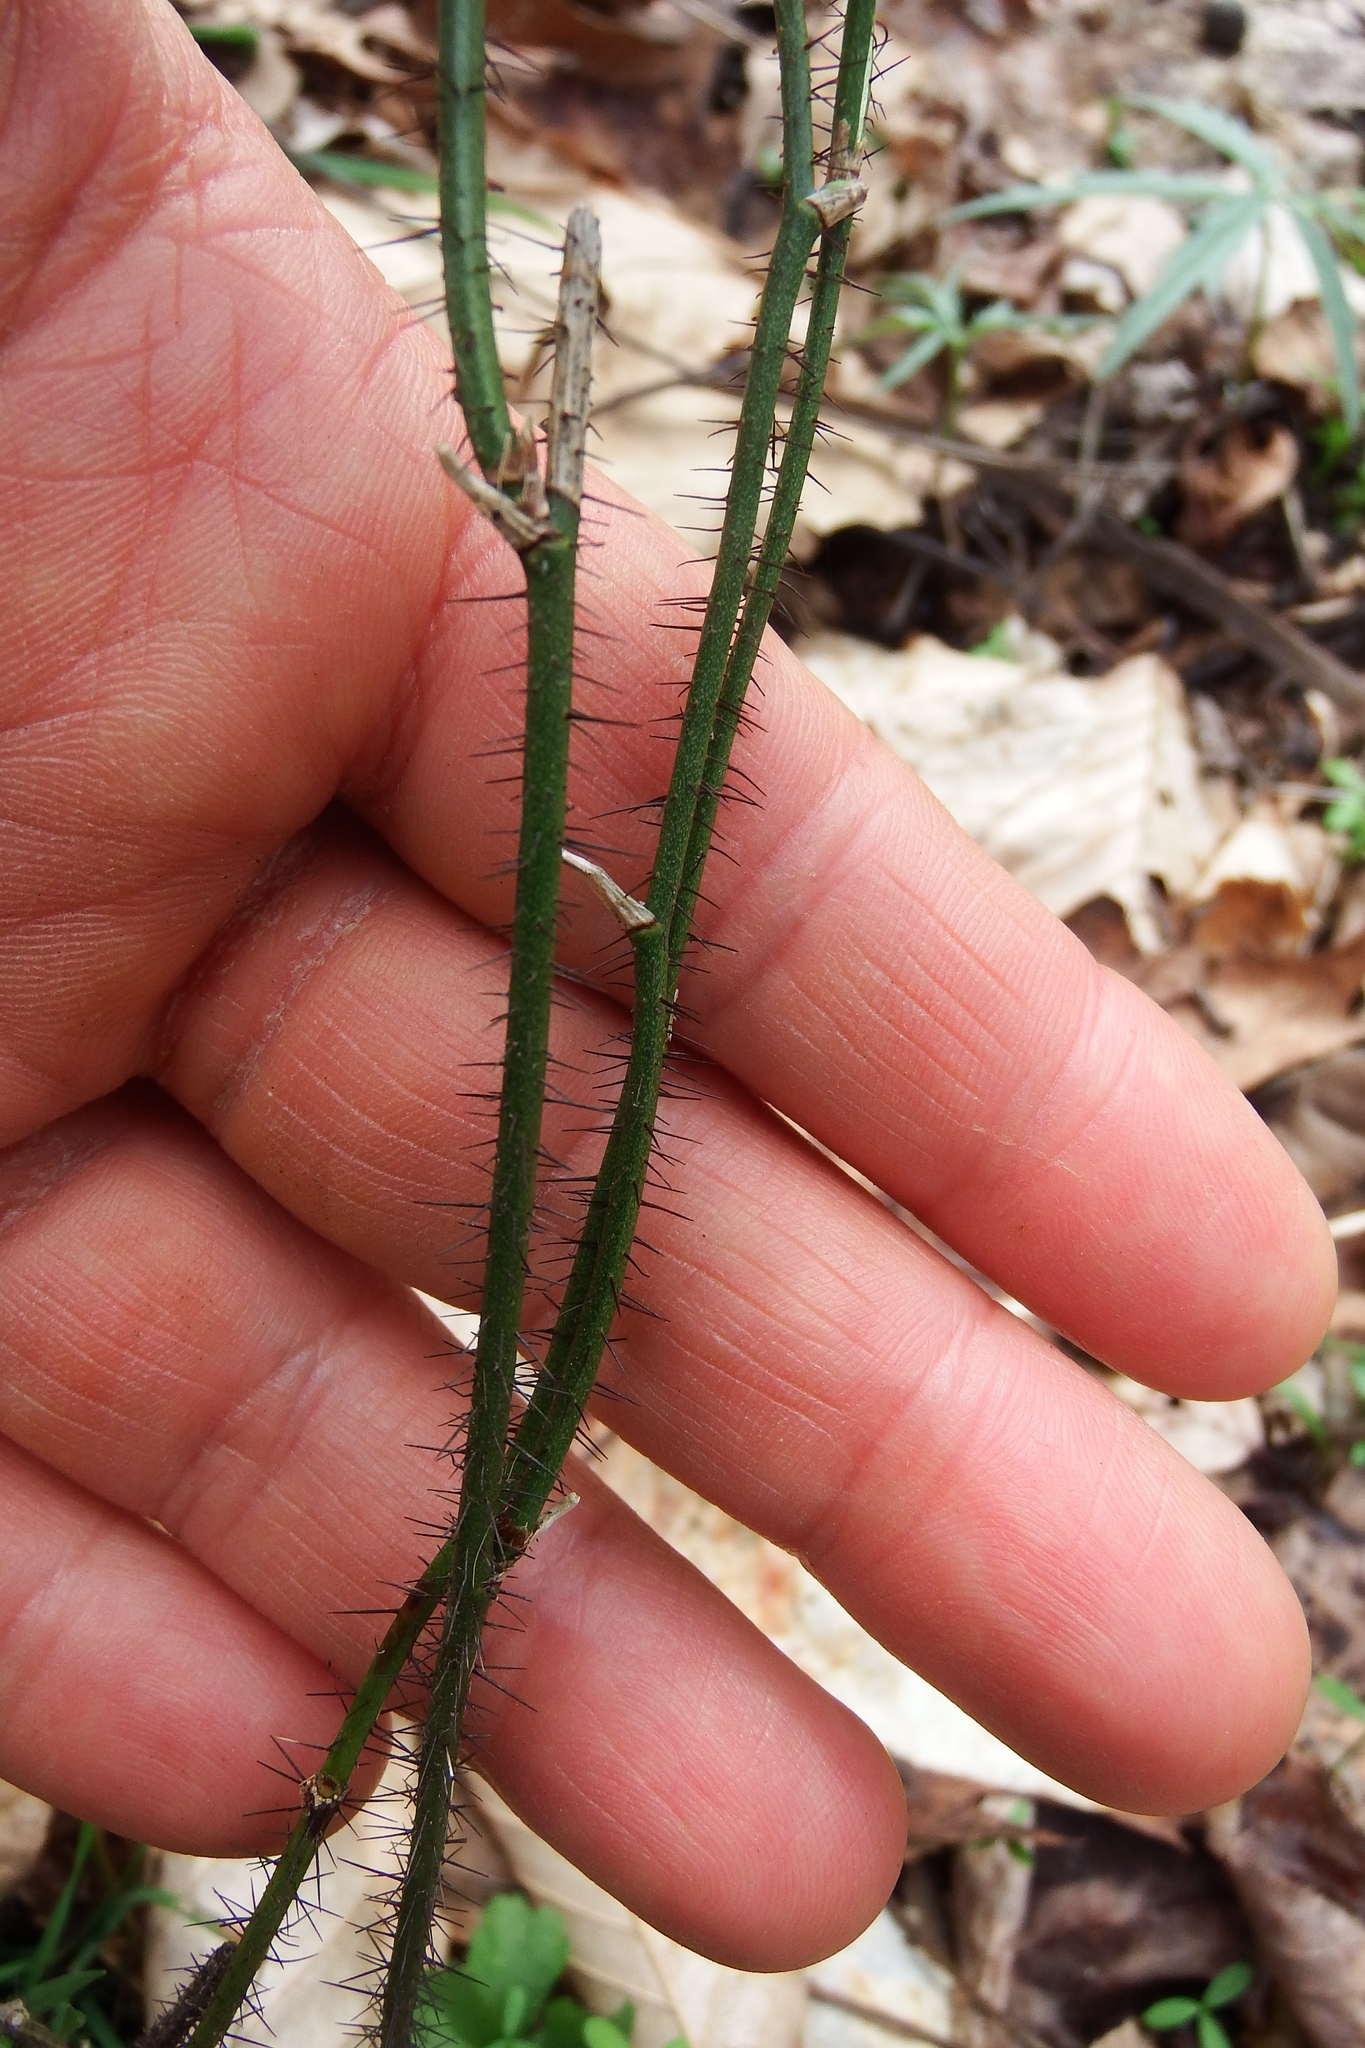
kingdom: Plantae
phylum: Tracheophyta
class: Liliopsida
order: Liliales
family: Smilacaceae
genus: Smilax
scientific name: Smilax tamnoides
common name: Hellfetter
